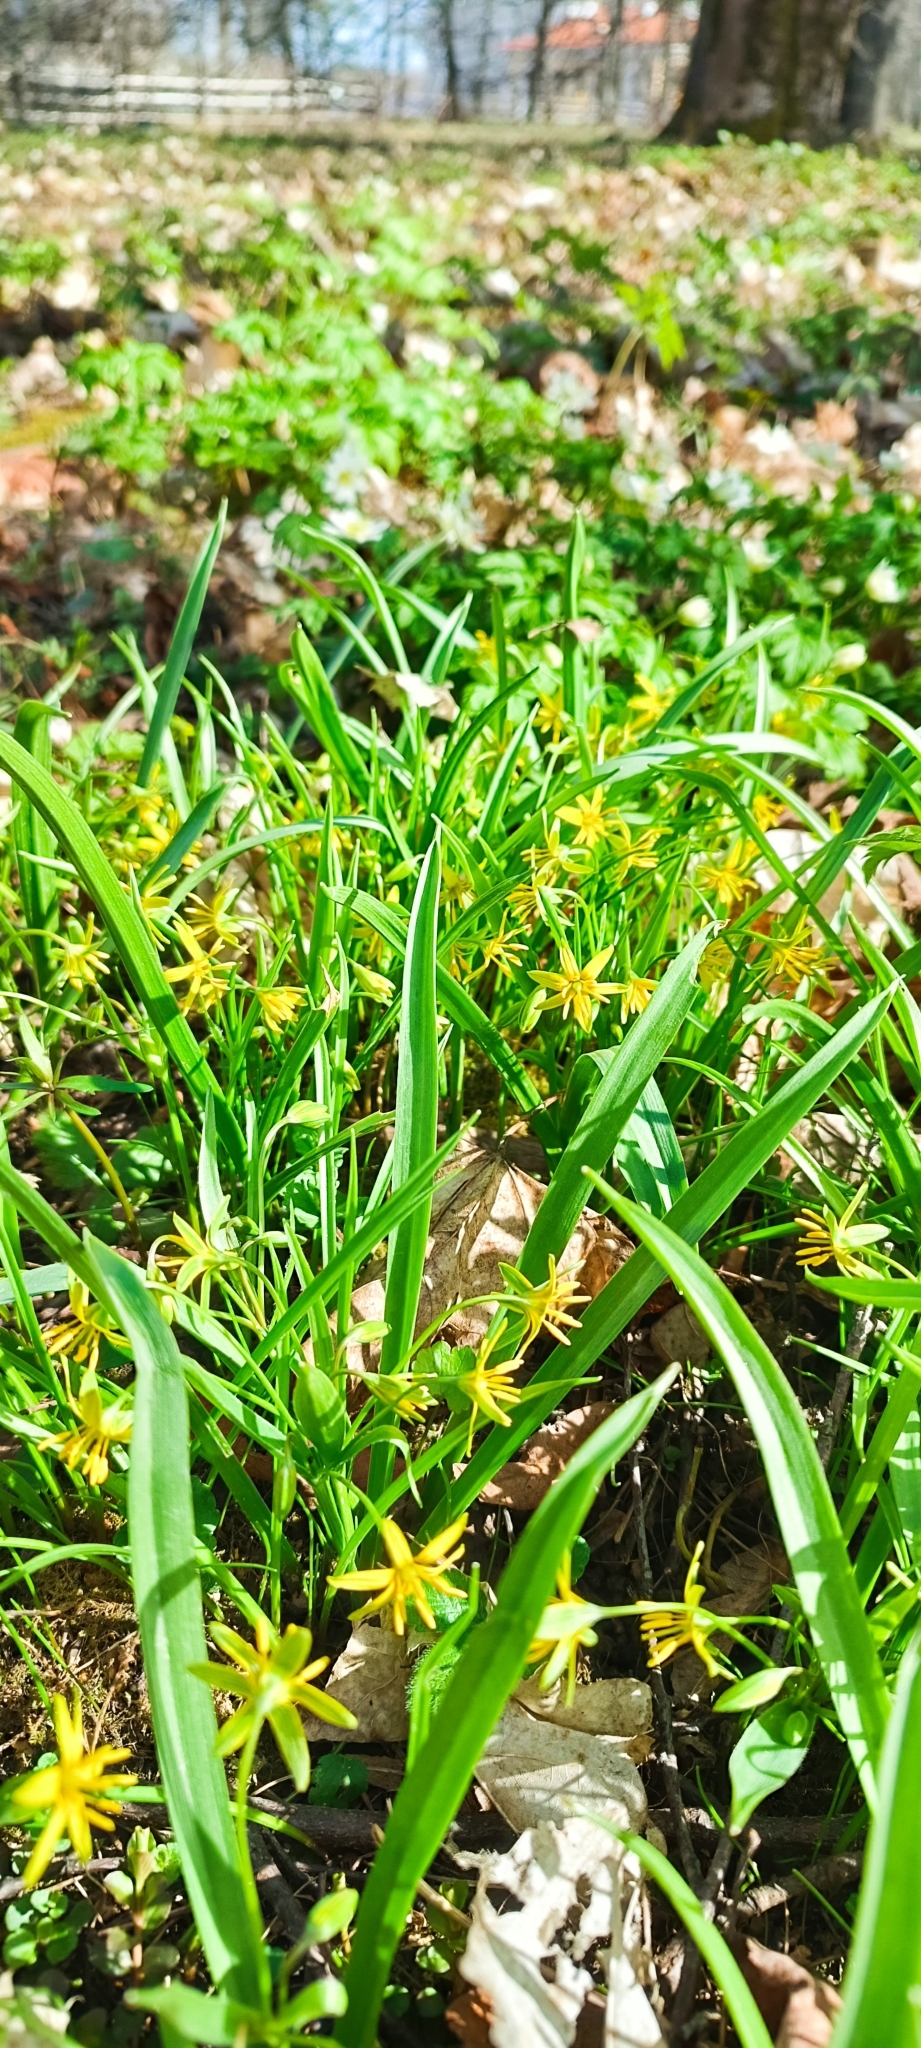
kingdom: Plantae
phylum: Tracheophyta
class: Liliopsida
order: Liliales
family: Liliaceae
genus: Gagea
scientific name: Gagea lutea
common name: Yellow star-of-bethlehem
